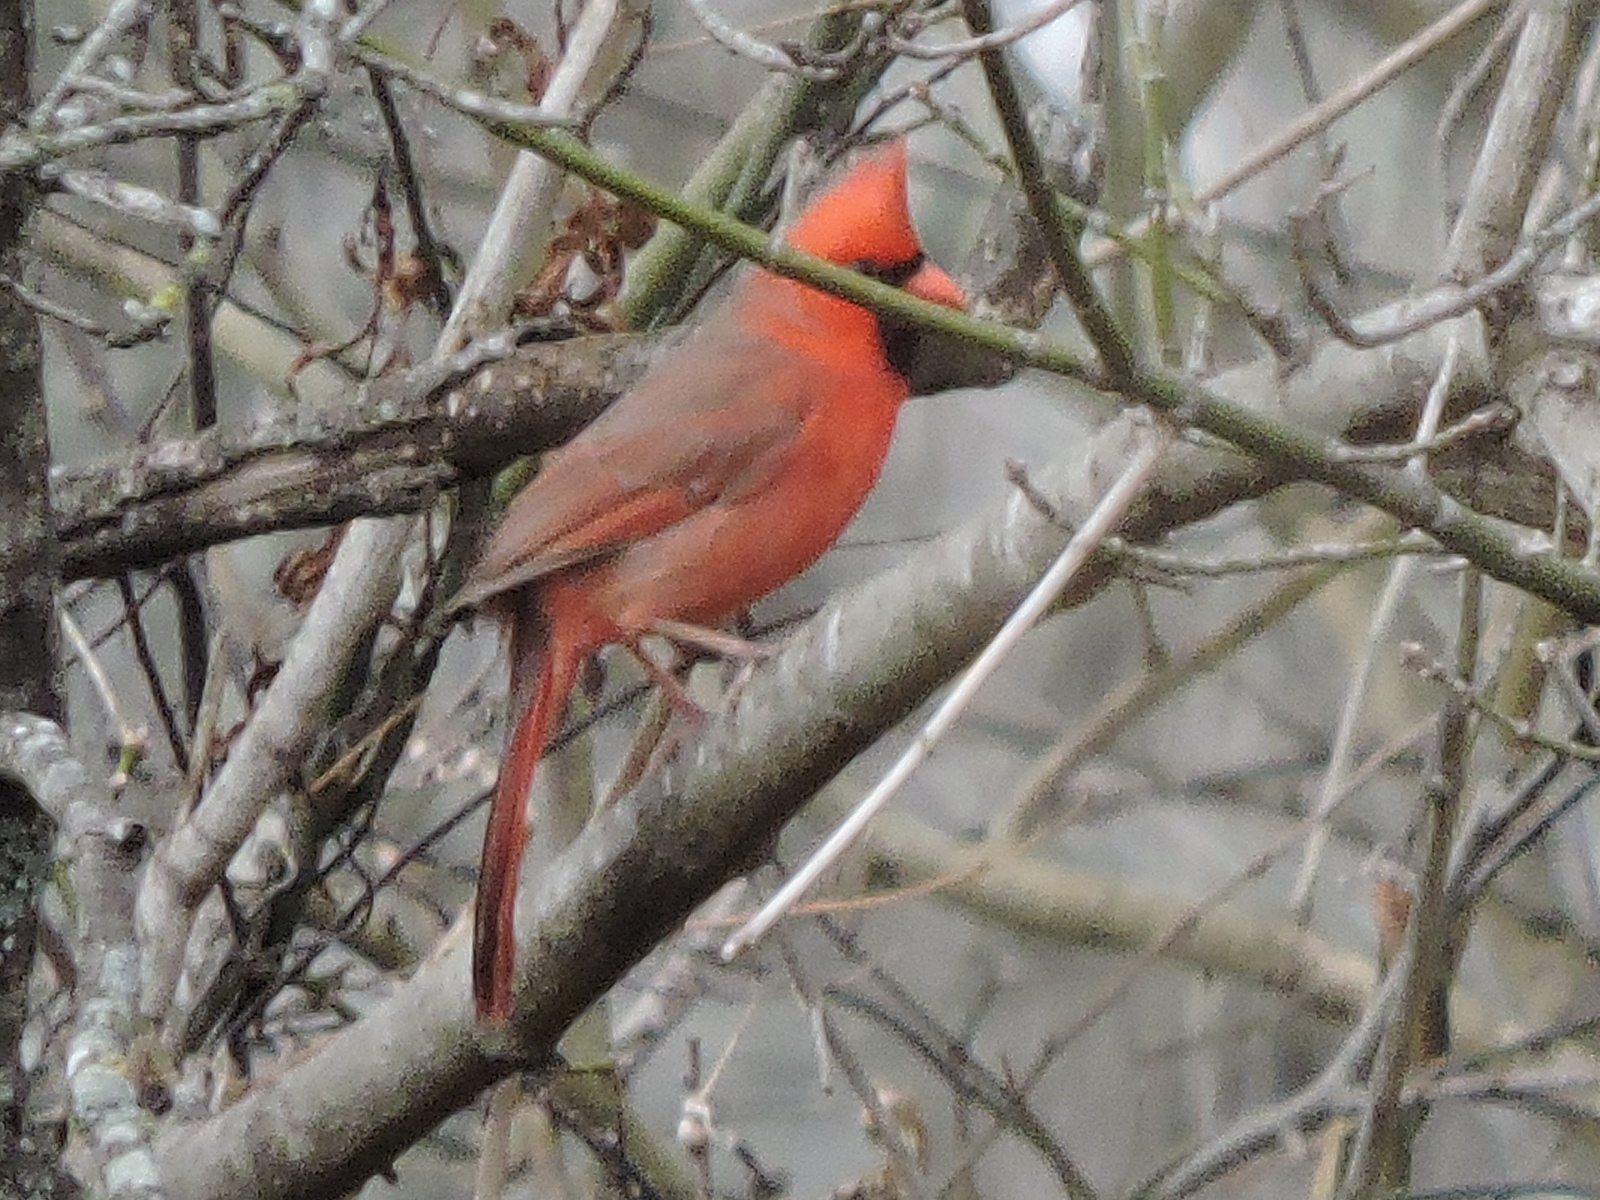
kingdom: Animalia
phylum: Chordata
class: Aves
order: Passeriformes
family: Cardinalidae
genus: Cardinalis
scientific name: Cardinalis cardinalis
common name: Northern cardinal
